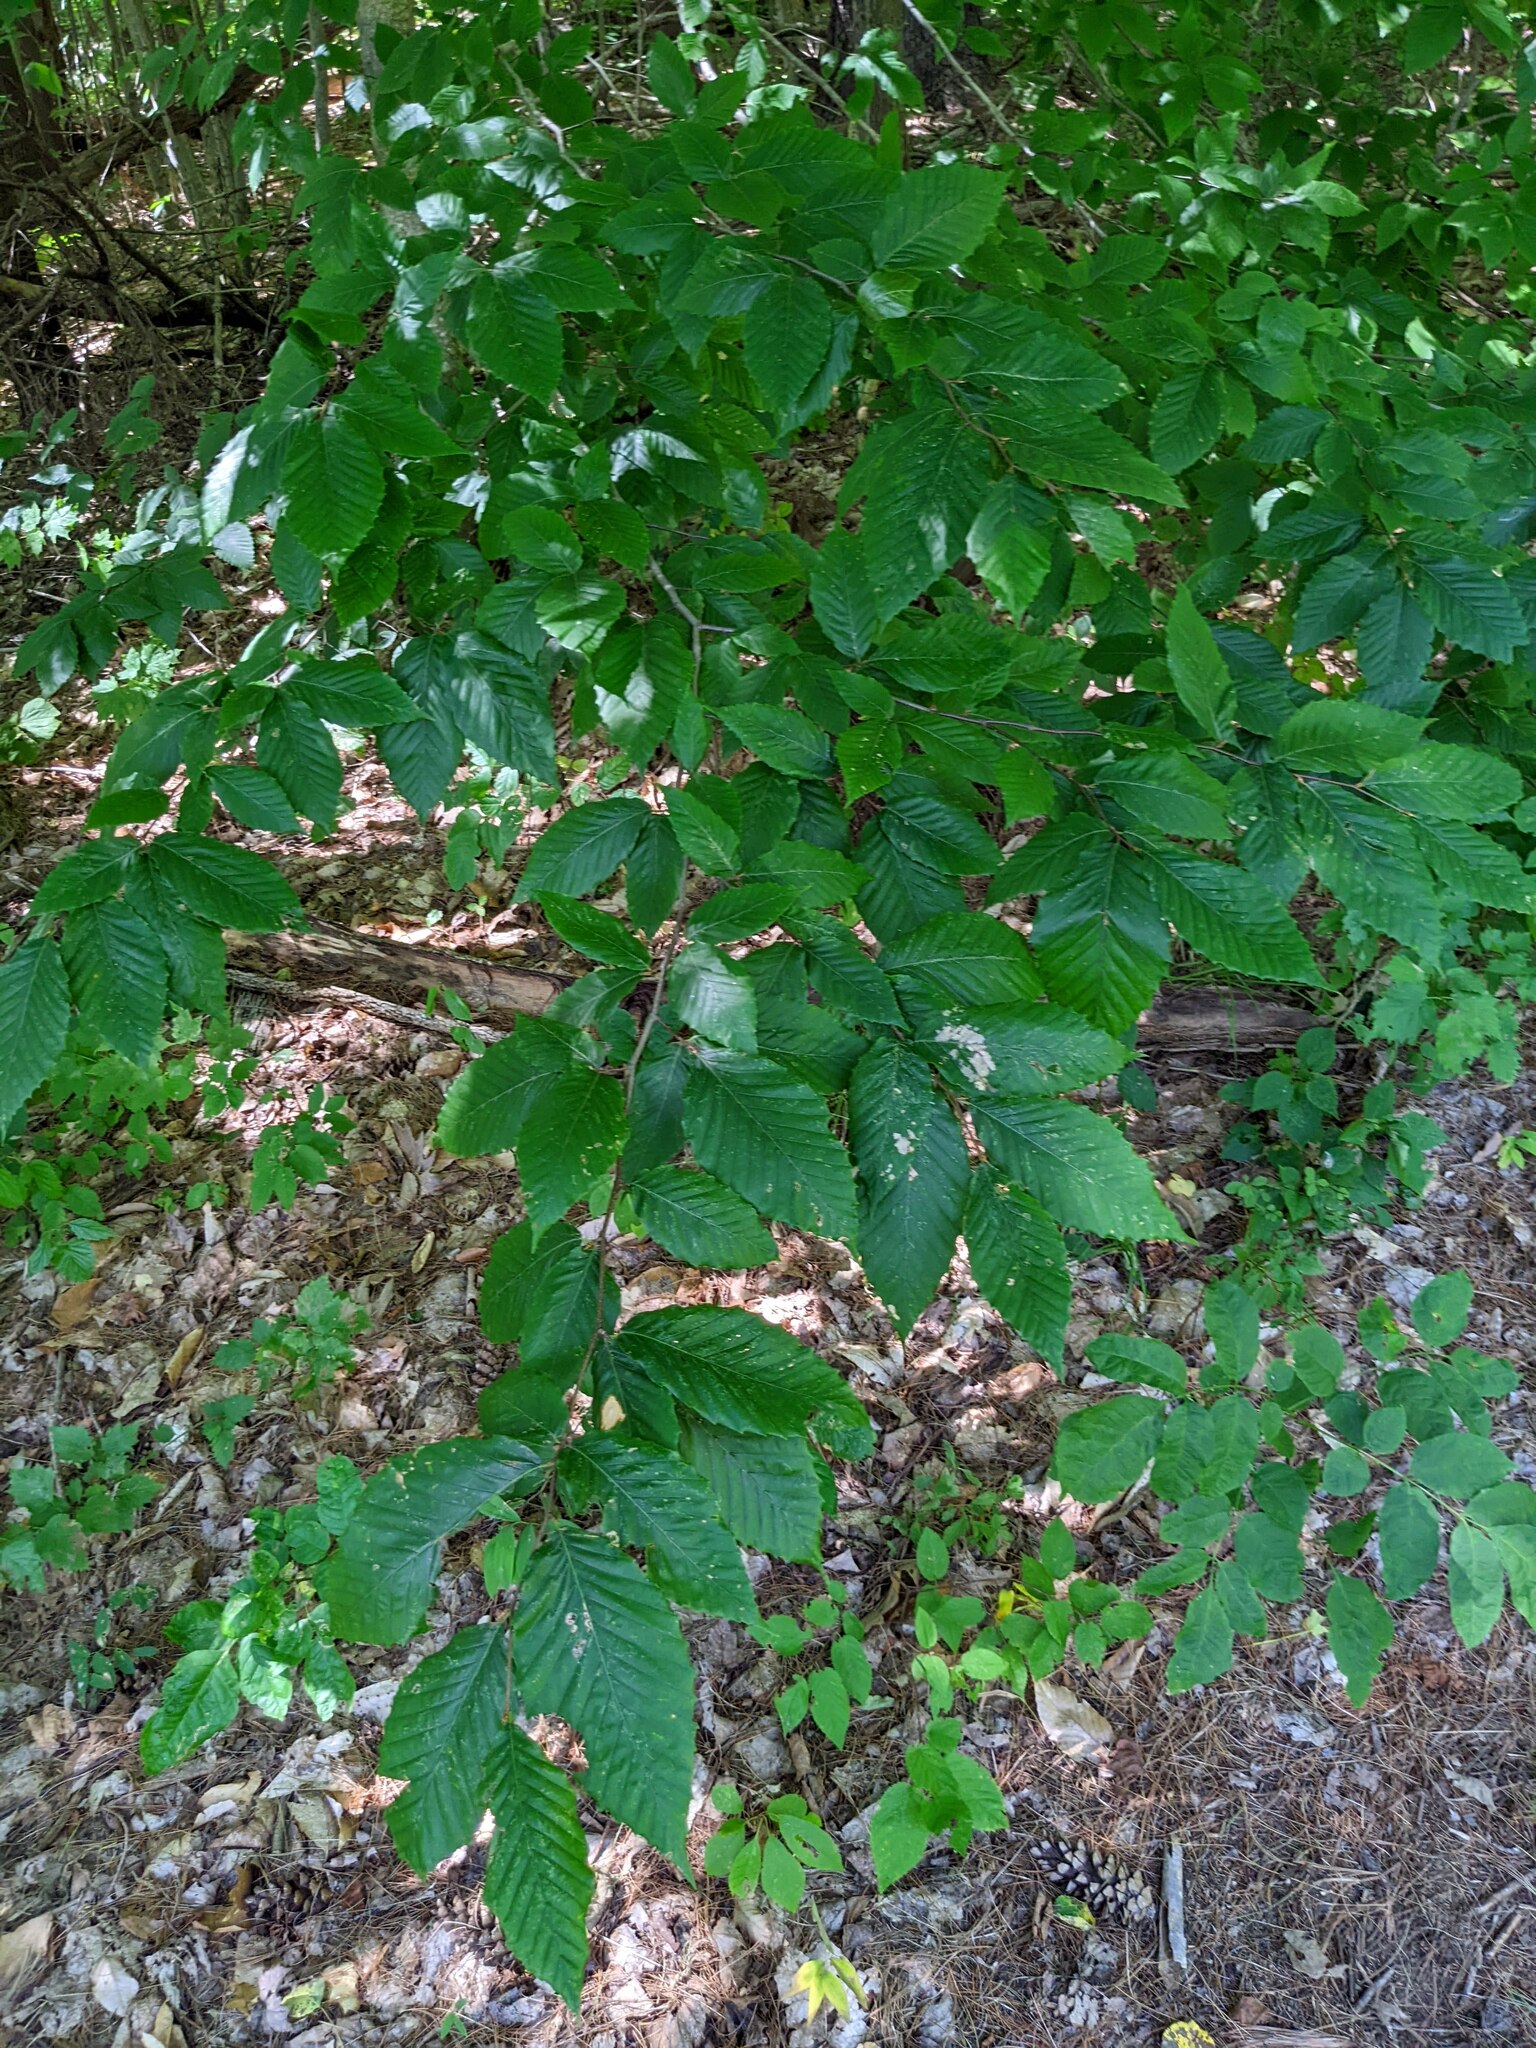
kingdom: Plantae
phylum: Tracheophyta
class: Magnoliopsida
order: Fagales
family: Fagaceae
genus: Fagus
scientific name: Fagus grandifolia
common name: American beech
